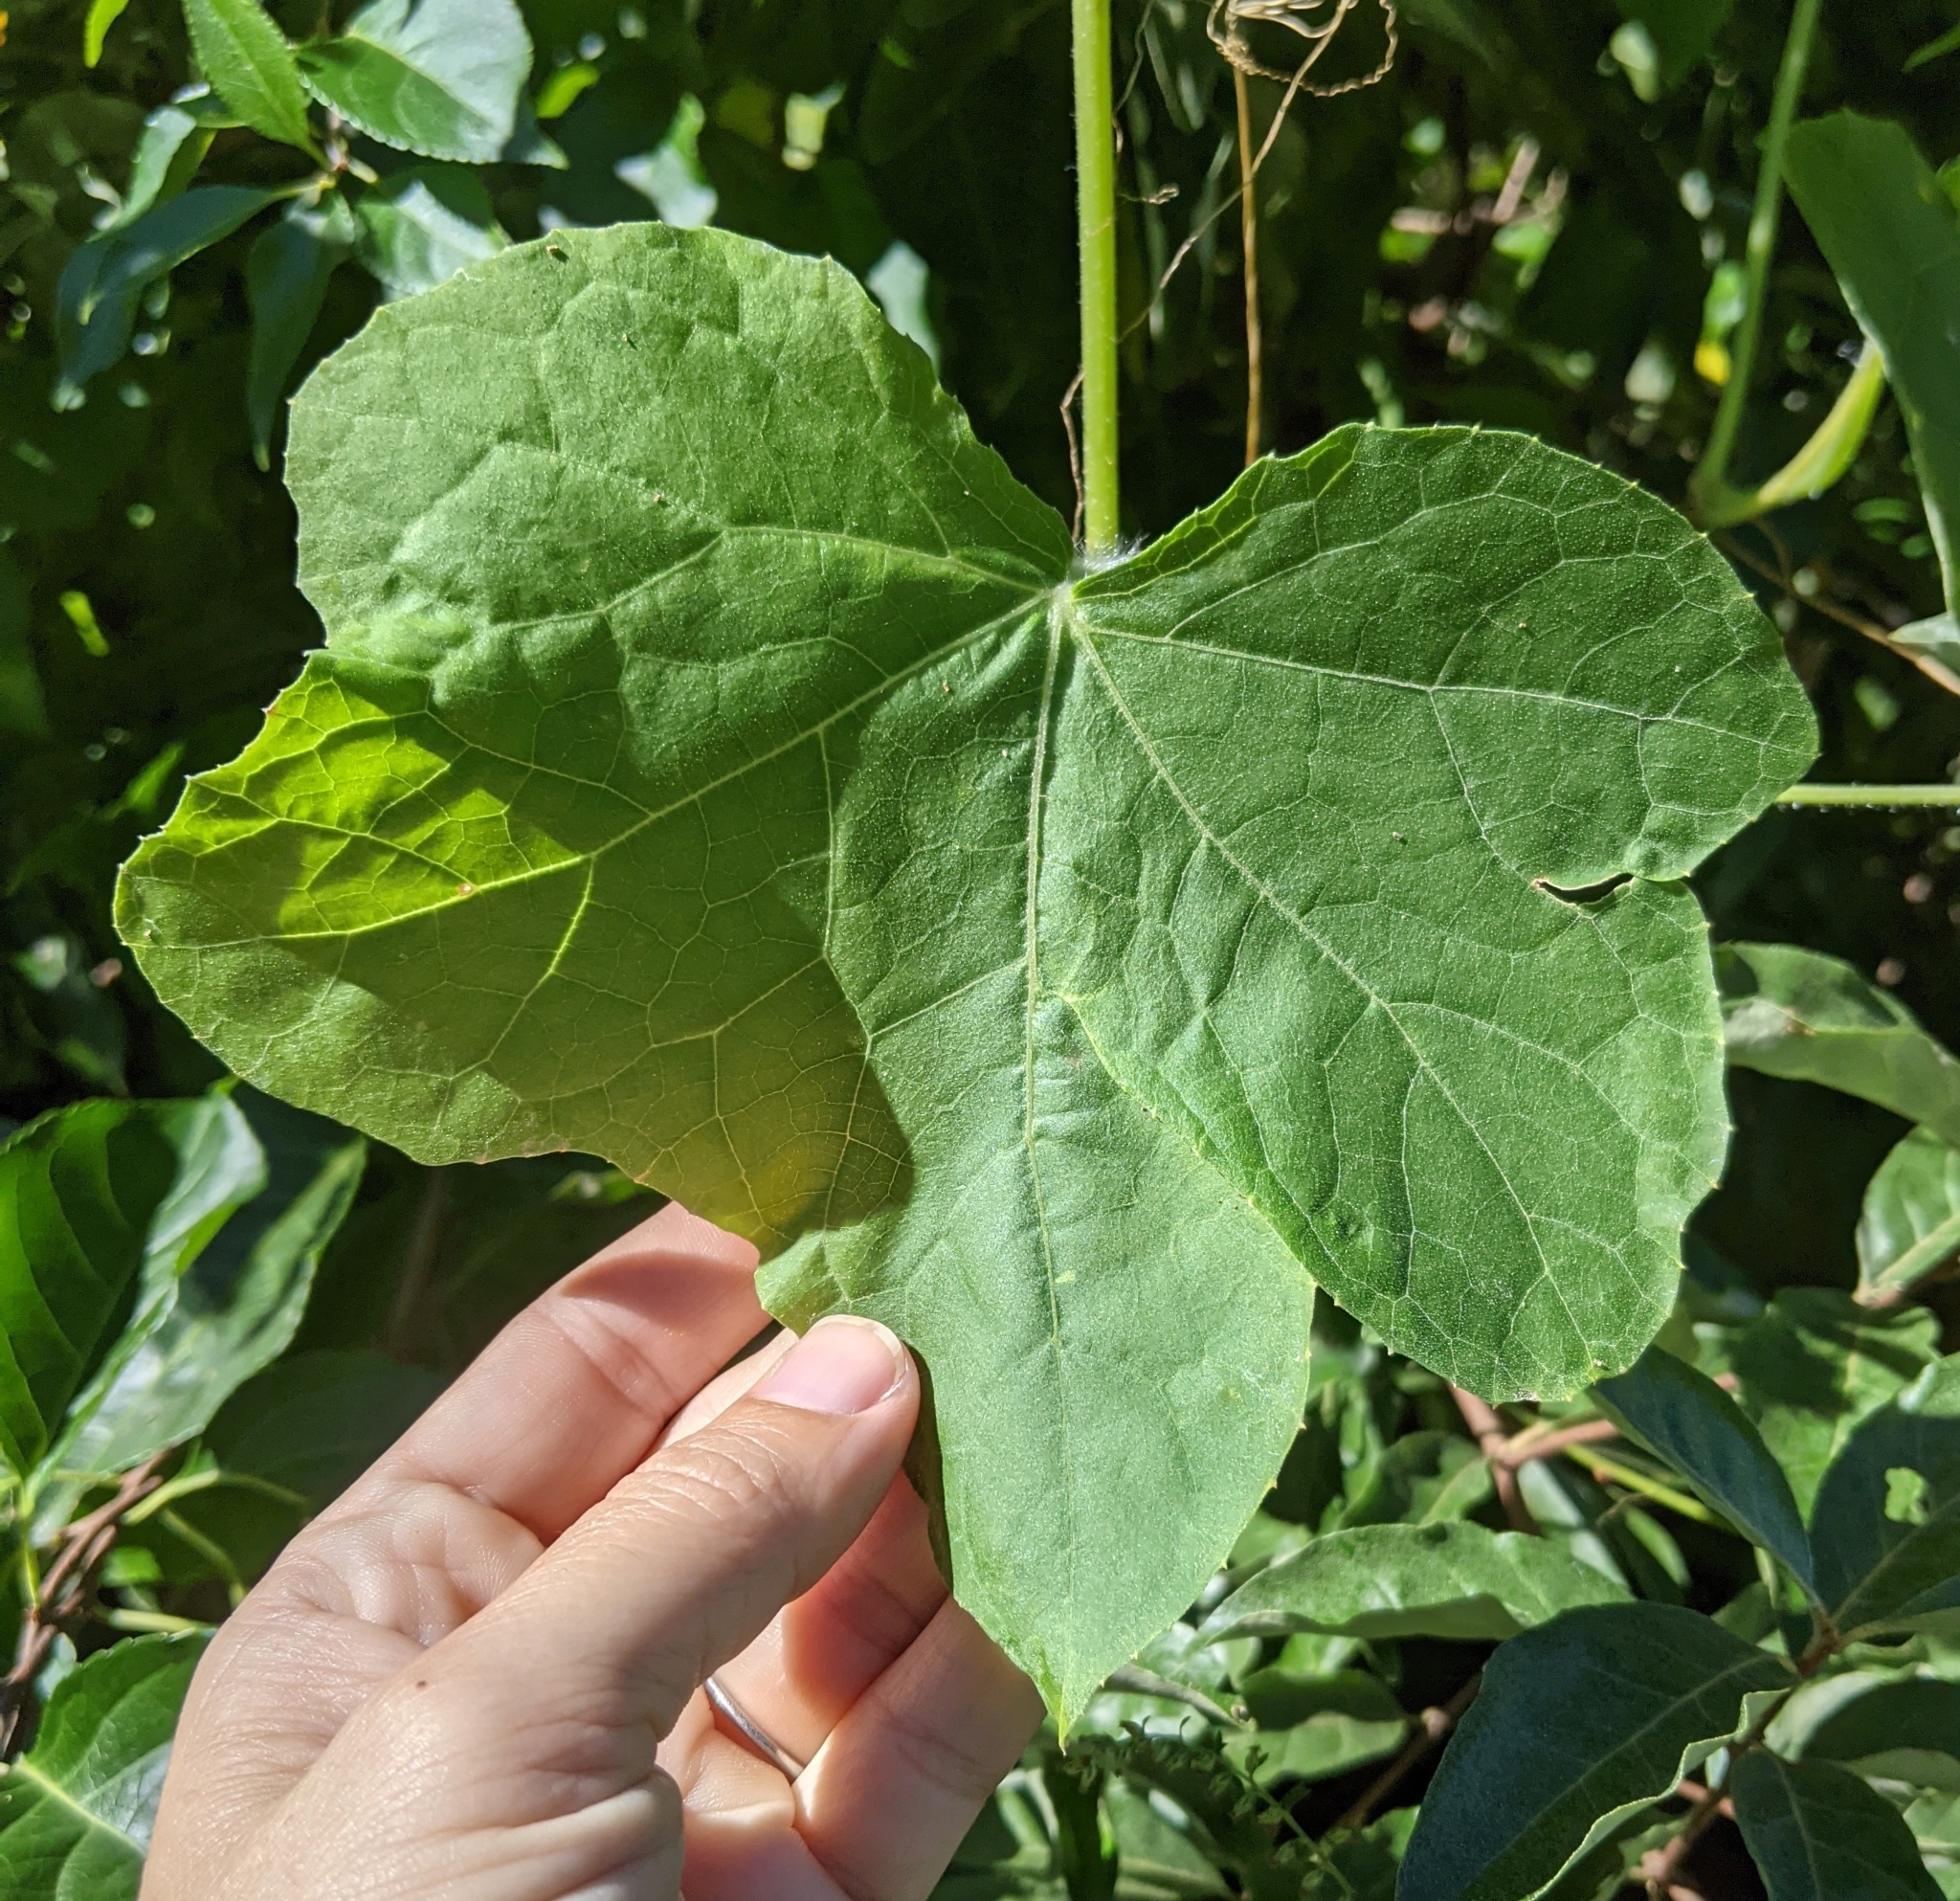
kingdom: Plantae
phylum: Tracheophyta
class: Magnoliopsida
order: Cucurbitales
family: Cucurbitaceae
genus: Sicyos
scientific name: Sicyos angulatus
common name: Angled burr cucumber
